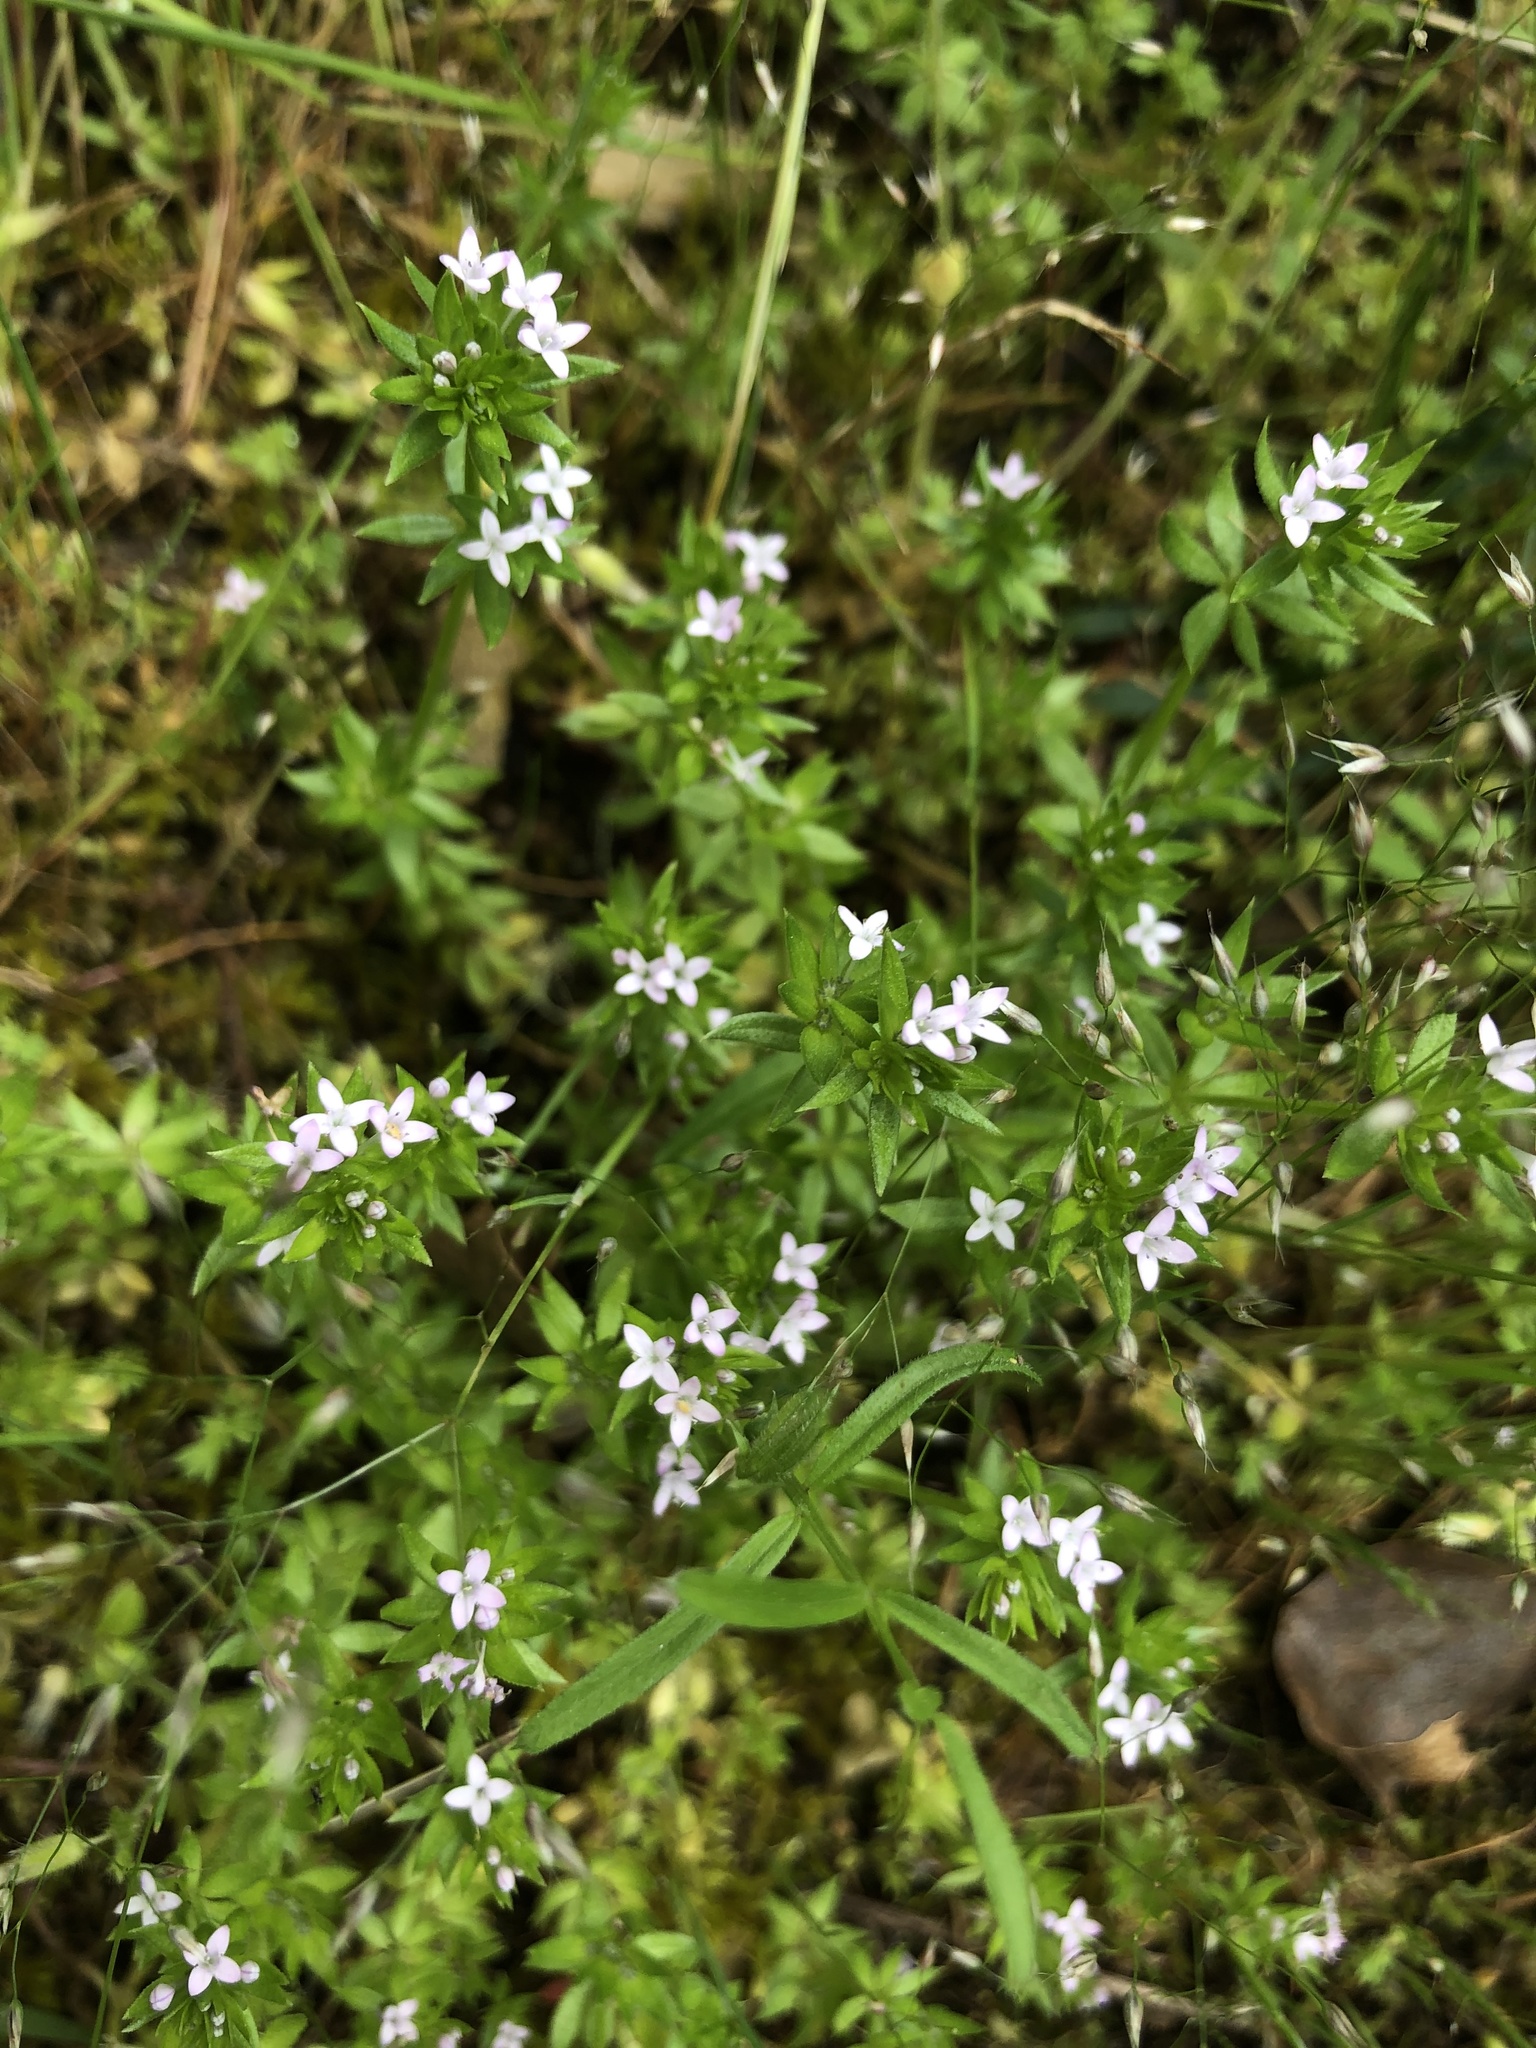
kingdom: Plantae
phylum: Tracheophyta
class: Magnoliopsida
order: Gentianales
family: Rubiaceae
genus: Sherardia
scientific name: Sherardia arvensis
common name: Field madder
